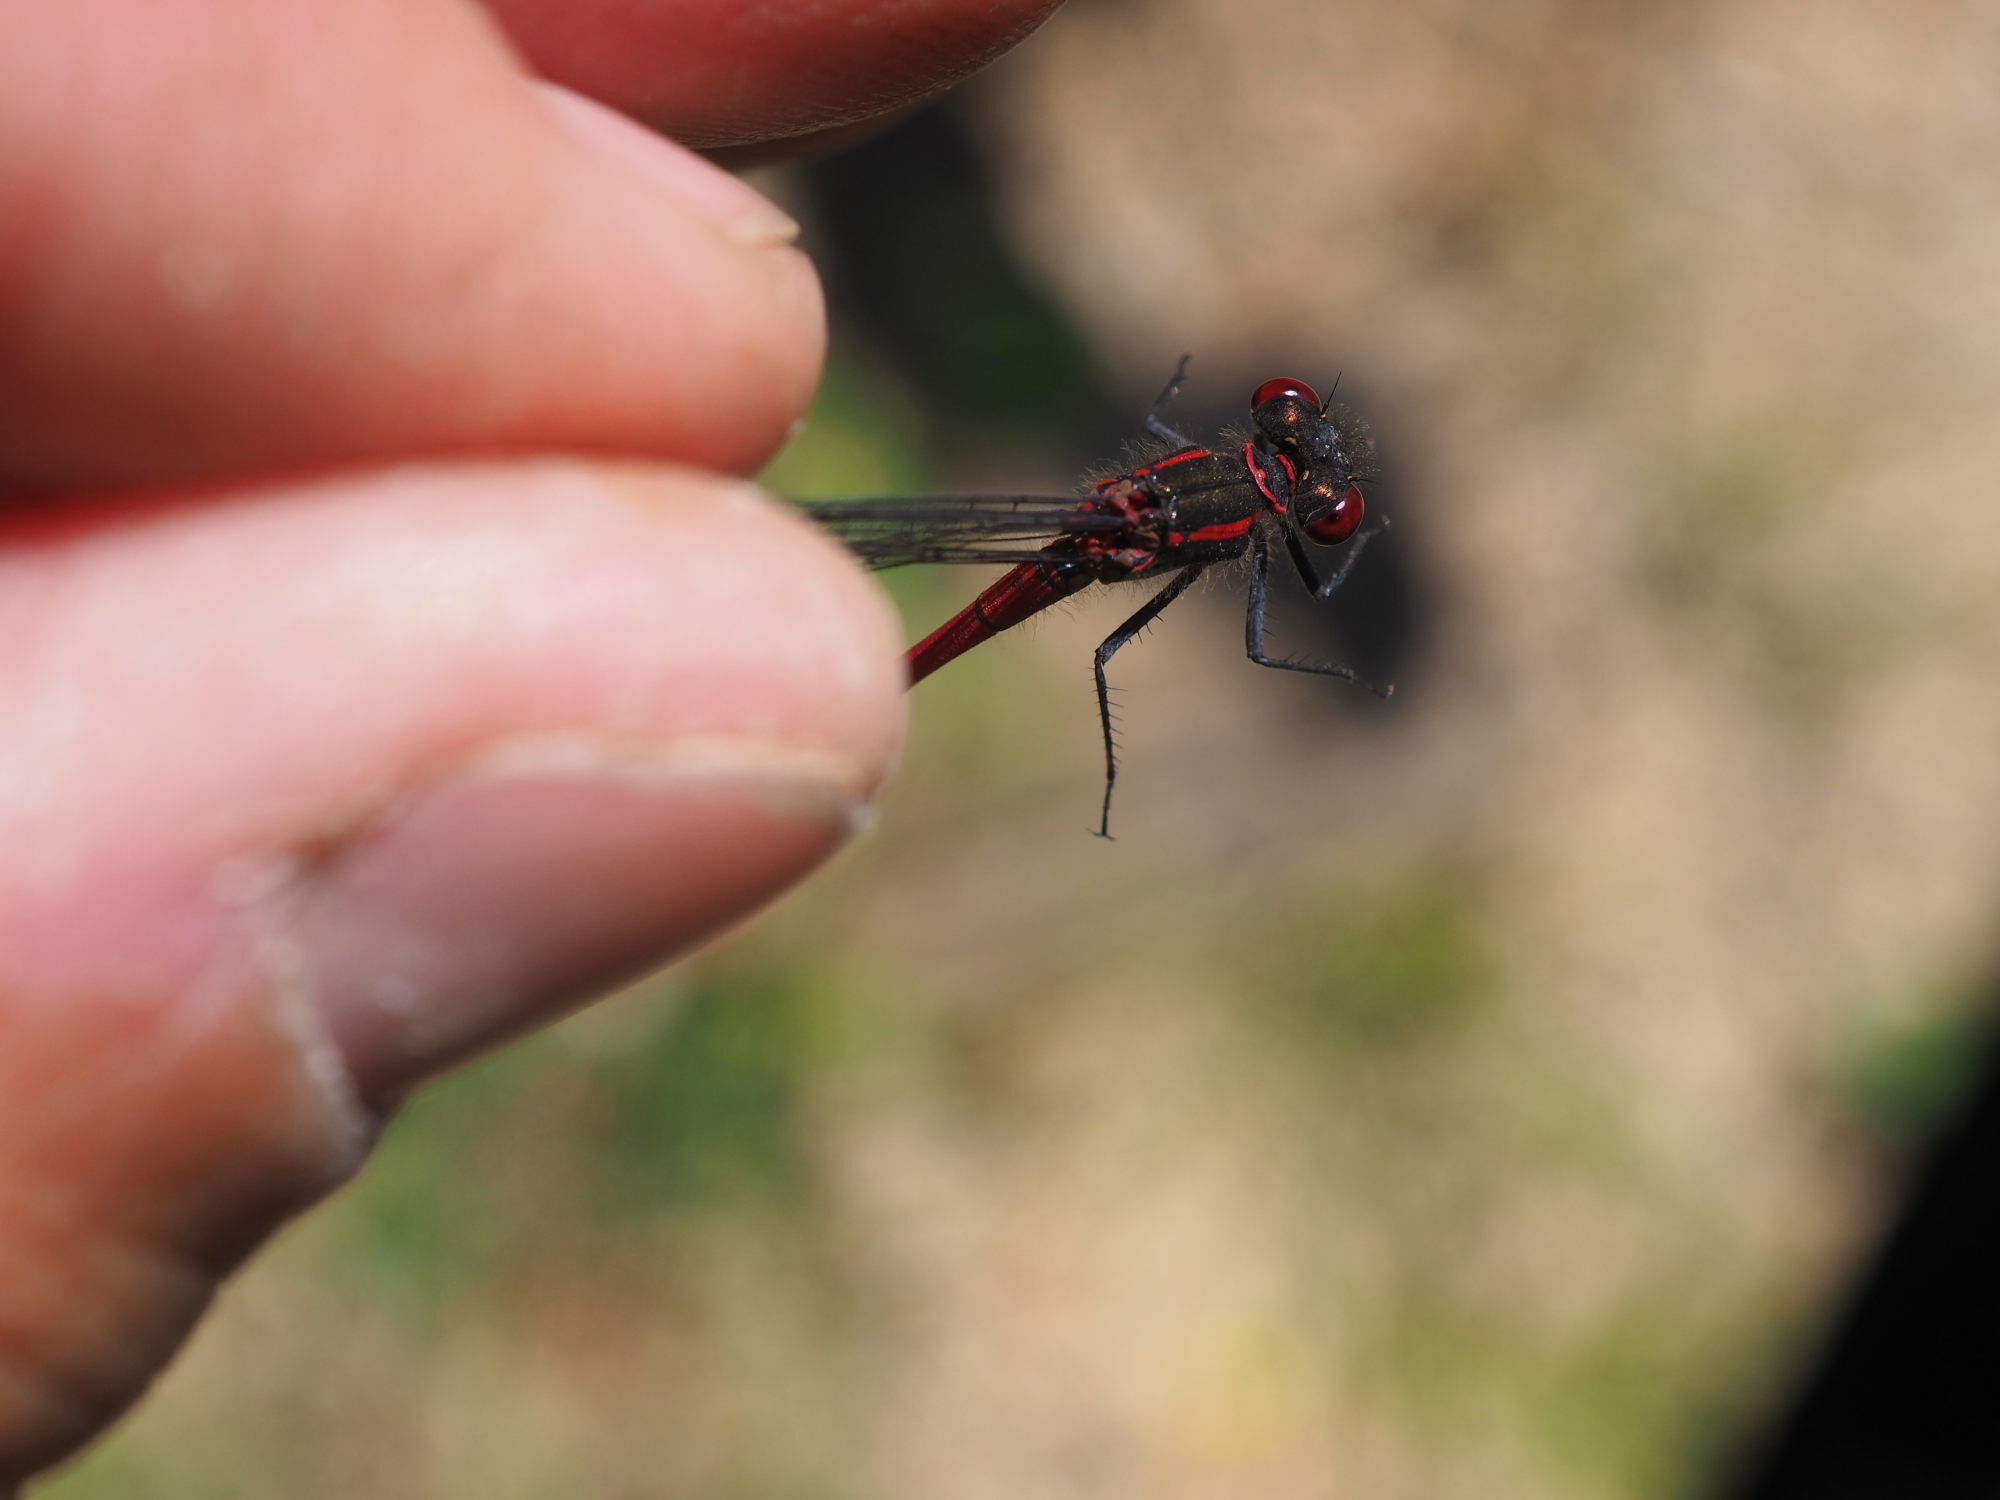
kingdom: Animalia
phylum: Arthropoda
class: Insecta
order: Odonata
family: Coenagrionidae
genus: Pyrrhosoma
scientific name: Pyrrhosoma nymphula
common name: Large red damsel
